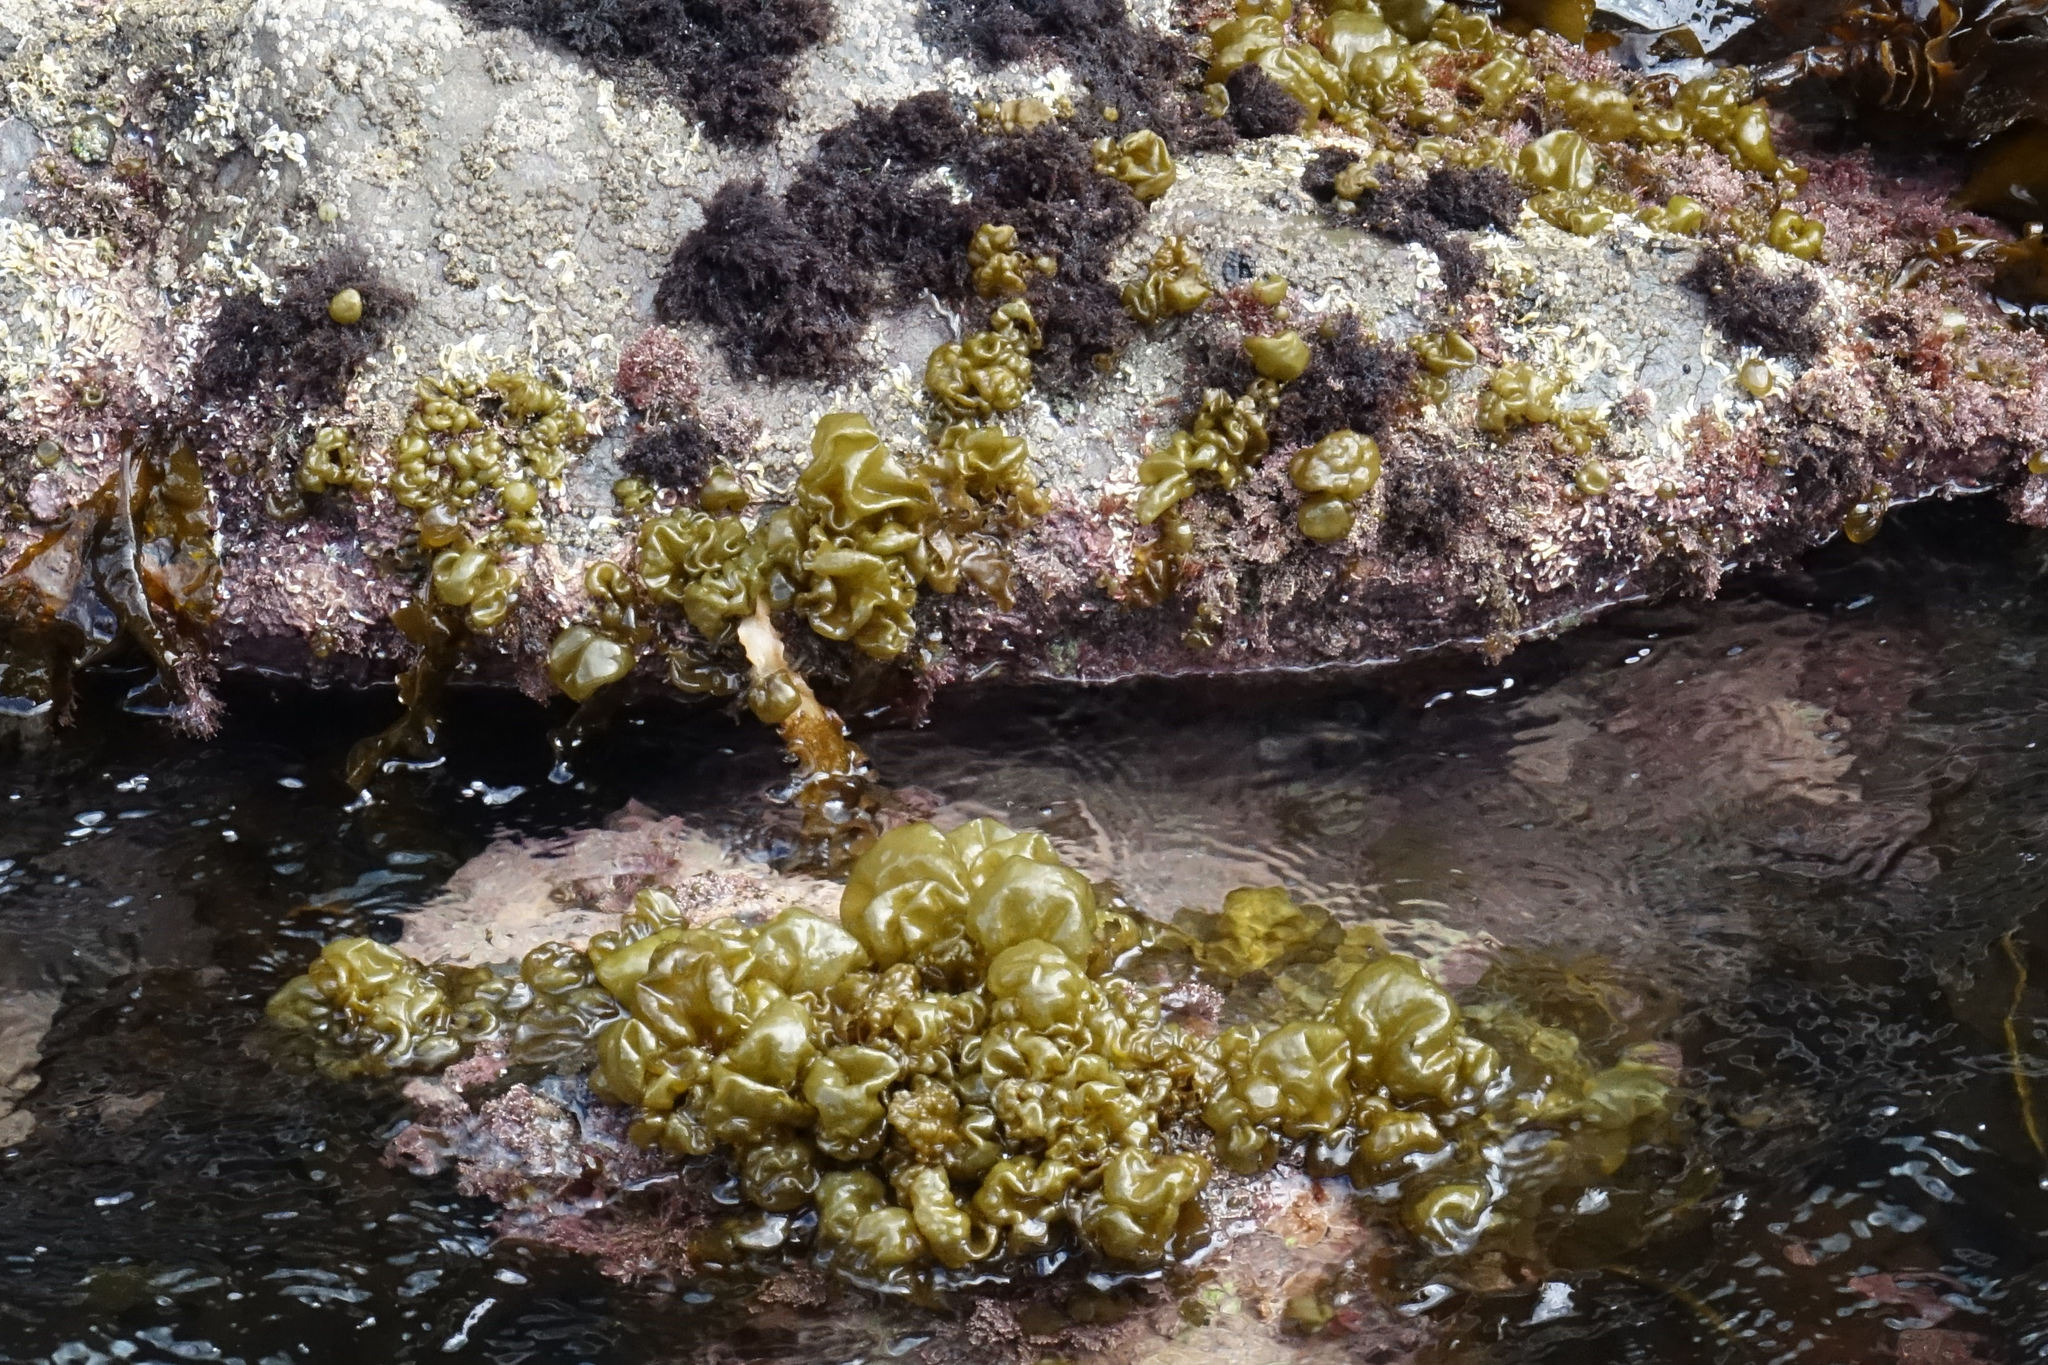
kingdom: Chromista
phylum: Ochrophyta
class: Phaeophyceae
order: Scytosiphonales
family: Scytosiphonaceae
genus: Colpomenia
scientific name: Colpomenia sinuosa
